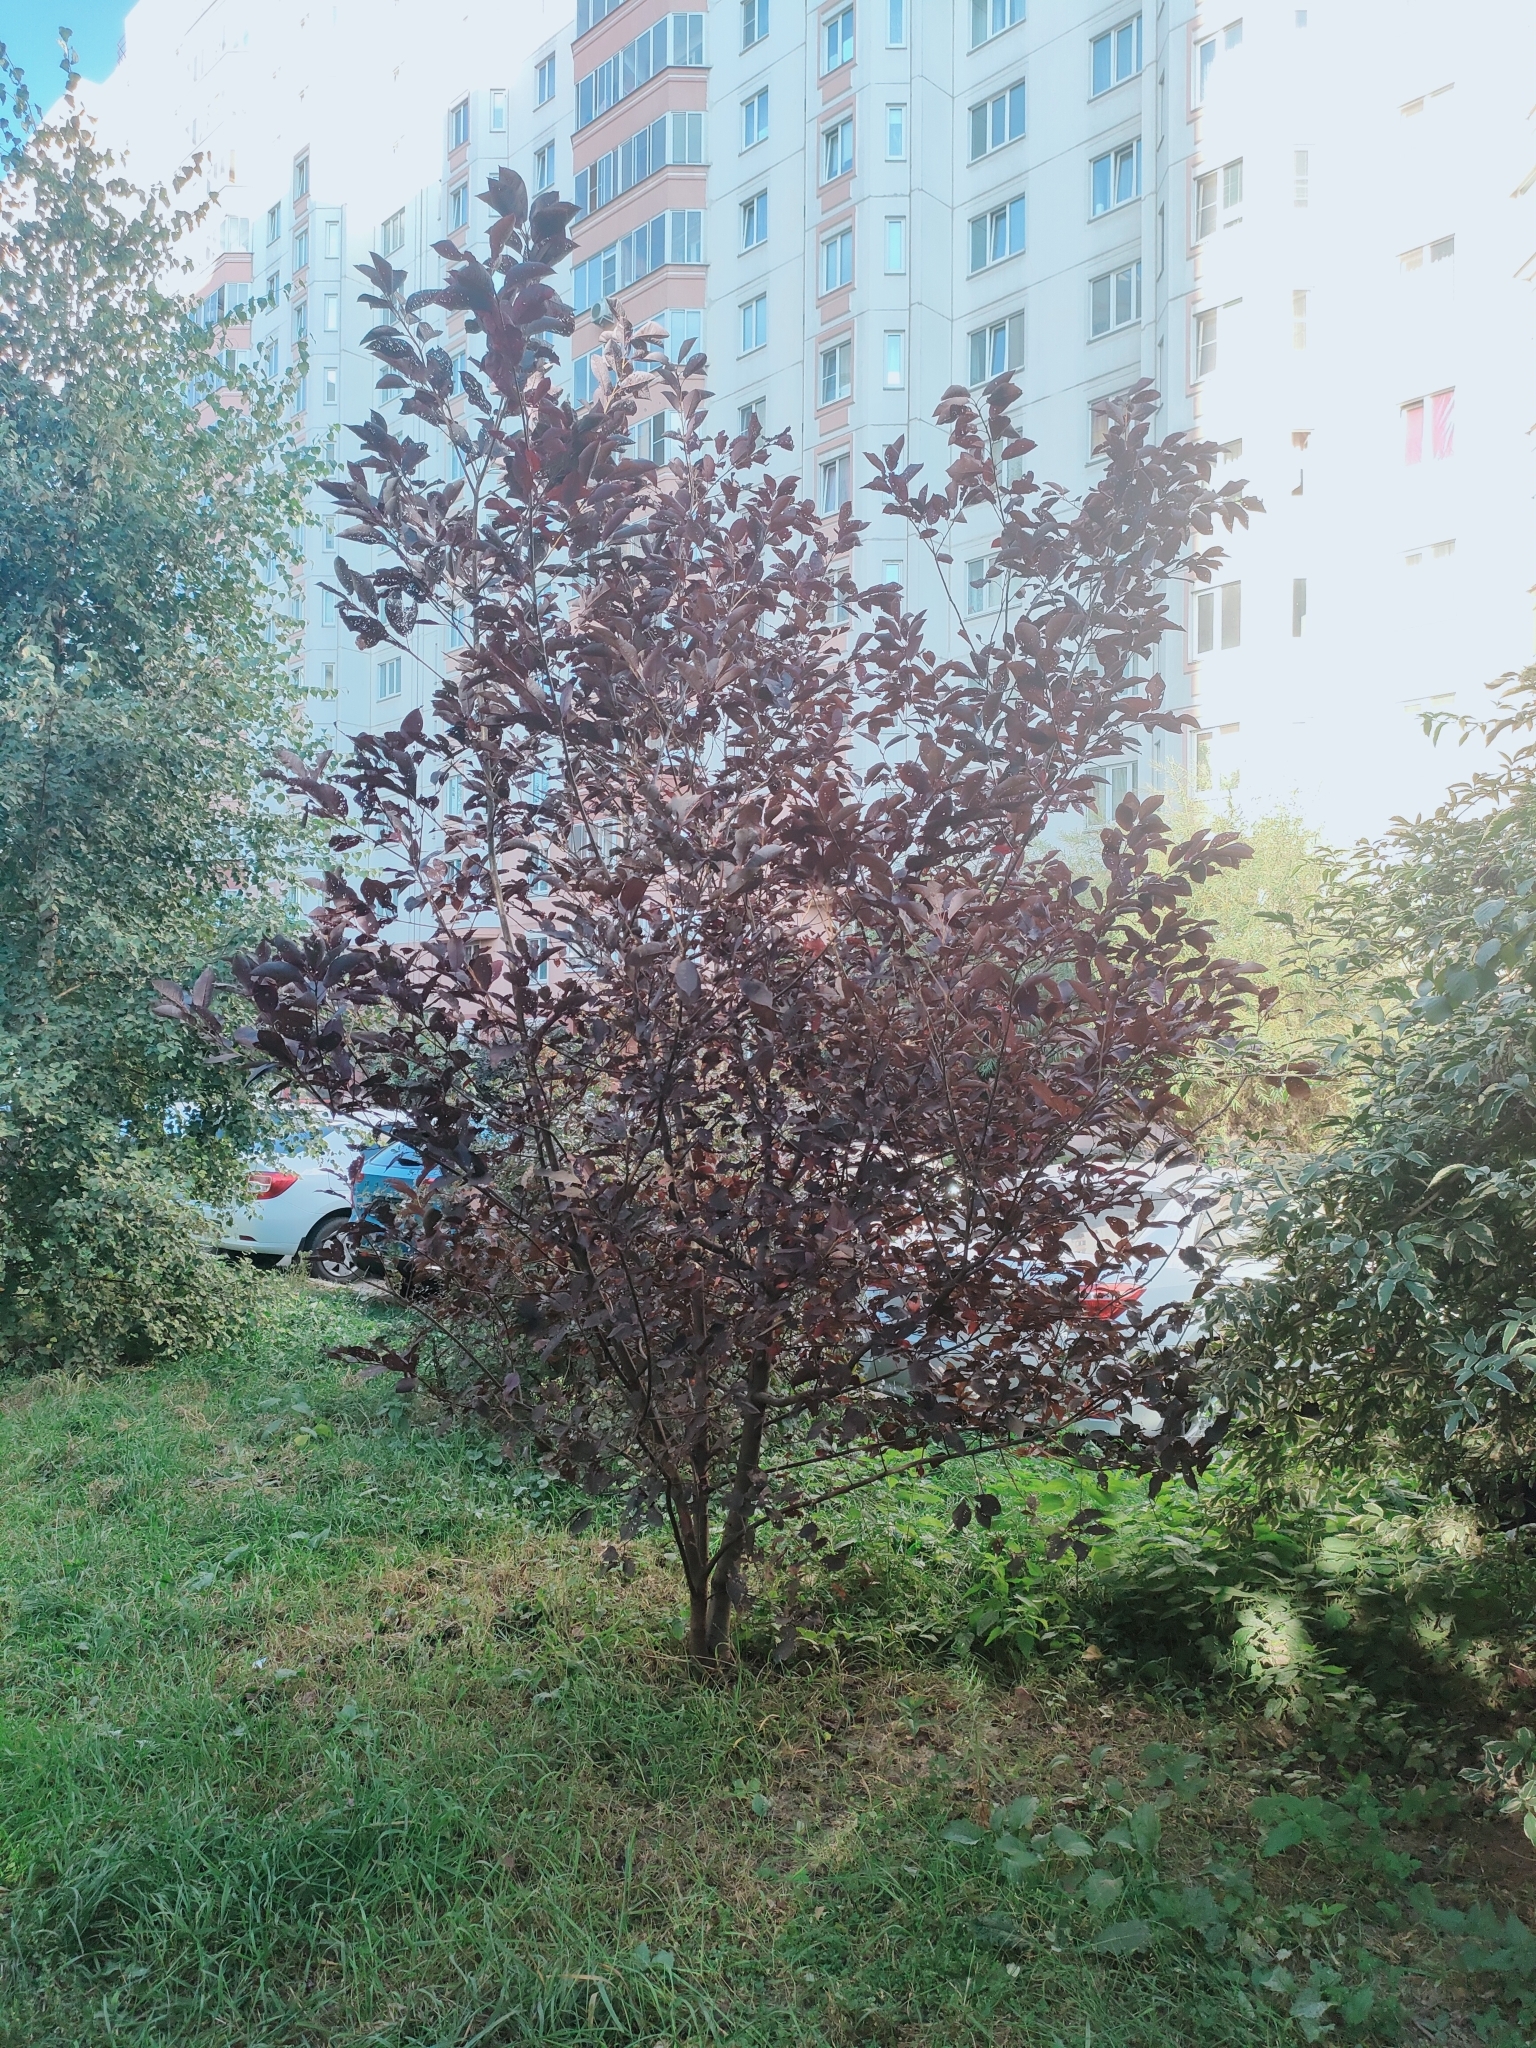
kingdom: Plantae
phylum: Tracheophyta
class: Magnoliopsida
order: Rosales
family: Rosaceae
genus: Prunus
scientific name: Prunus padus
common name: Bird cherry
